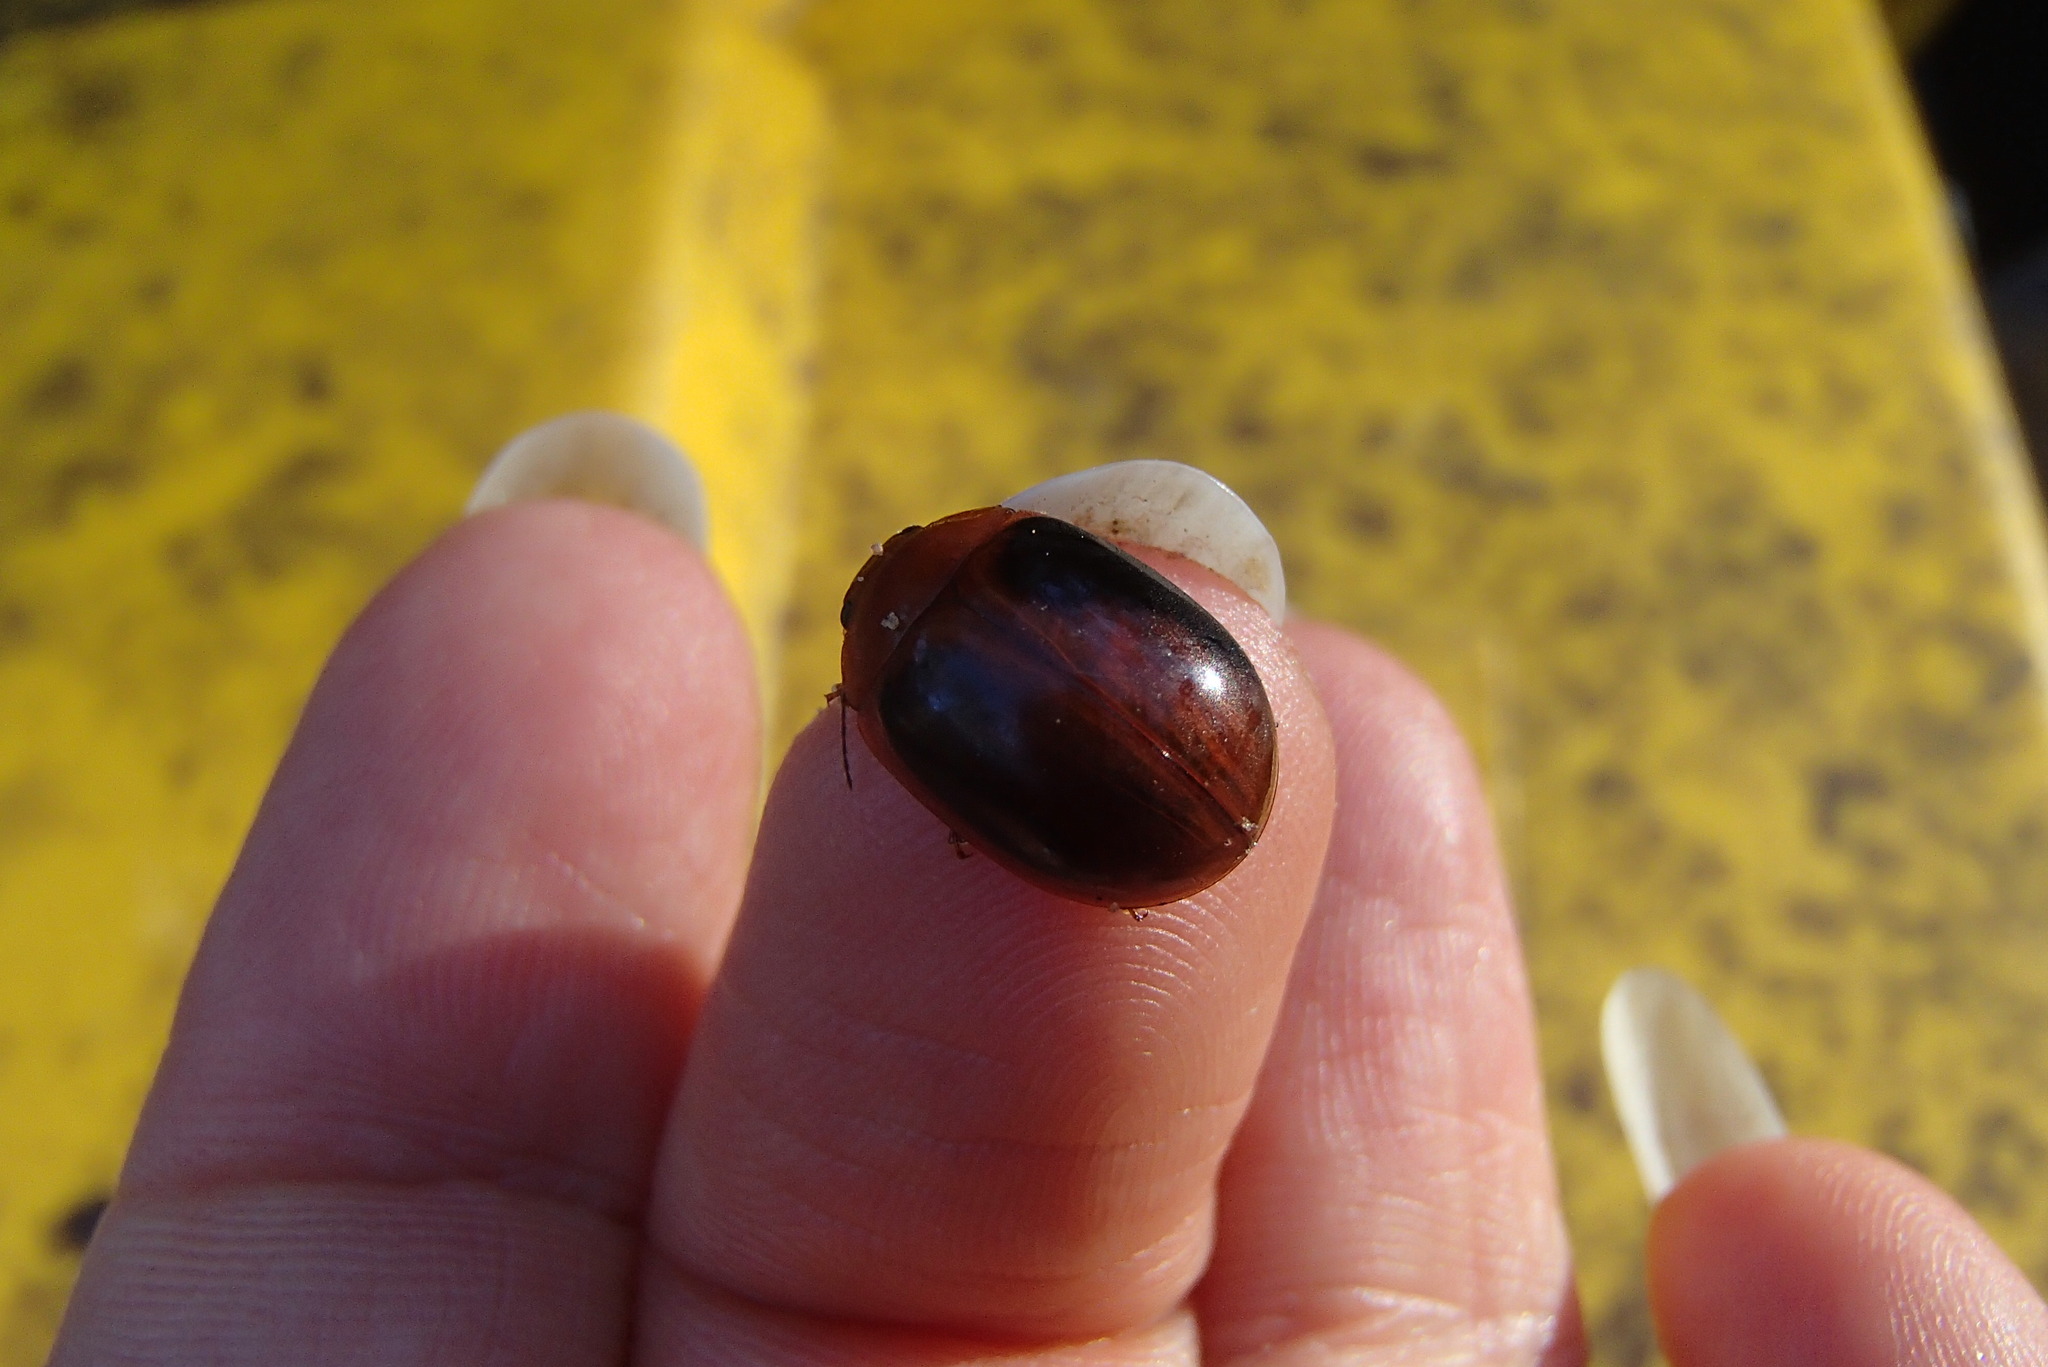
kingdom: Animalia
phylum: Arthropoda
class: Insecta
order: Coleoptera
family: Chrysomelidae
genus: Paropsisterna
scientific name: Paropsisterna
